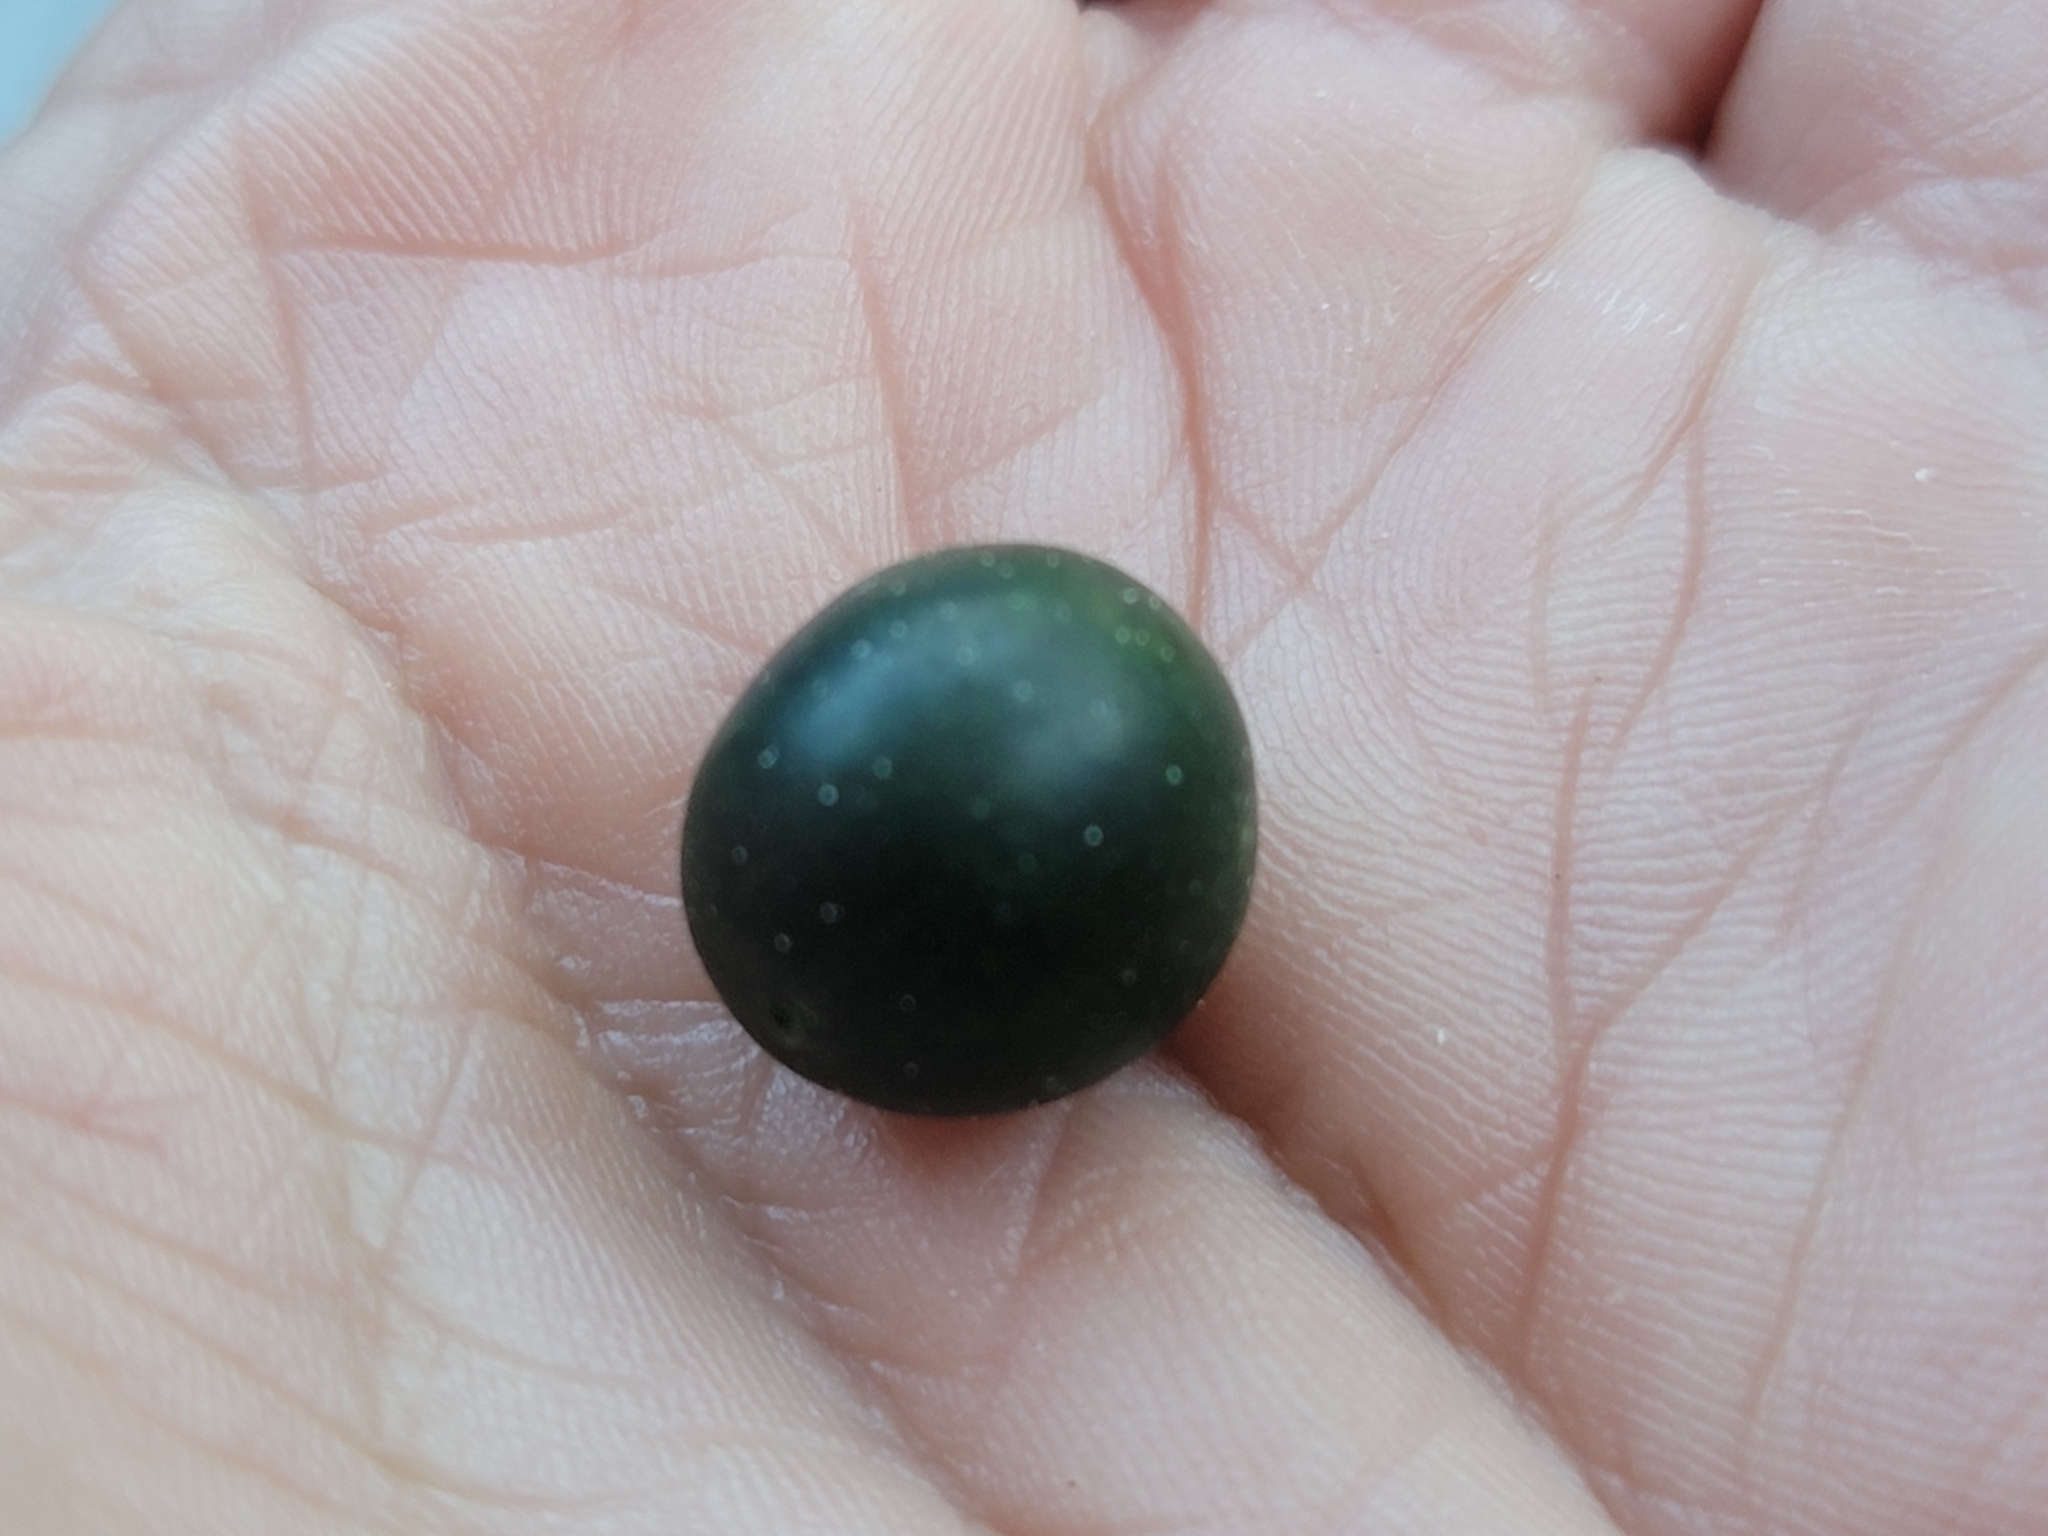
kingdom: Plantae
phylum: Tracheophyta
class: Magnoliopsida
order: Solanales
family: Convolvulaceae
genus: Ipomoea
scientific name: Ipomoea coccinea
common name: Red morning-glory
